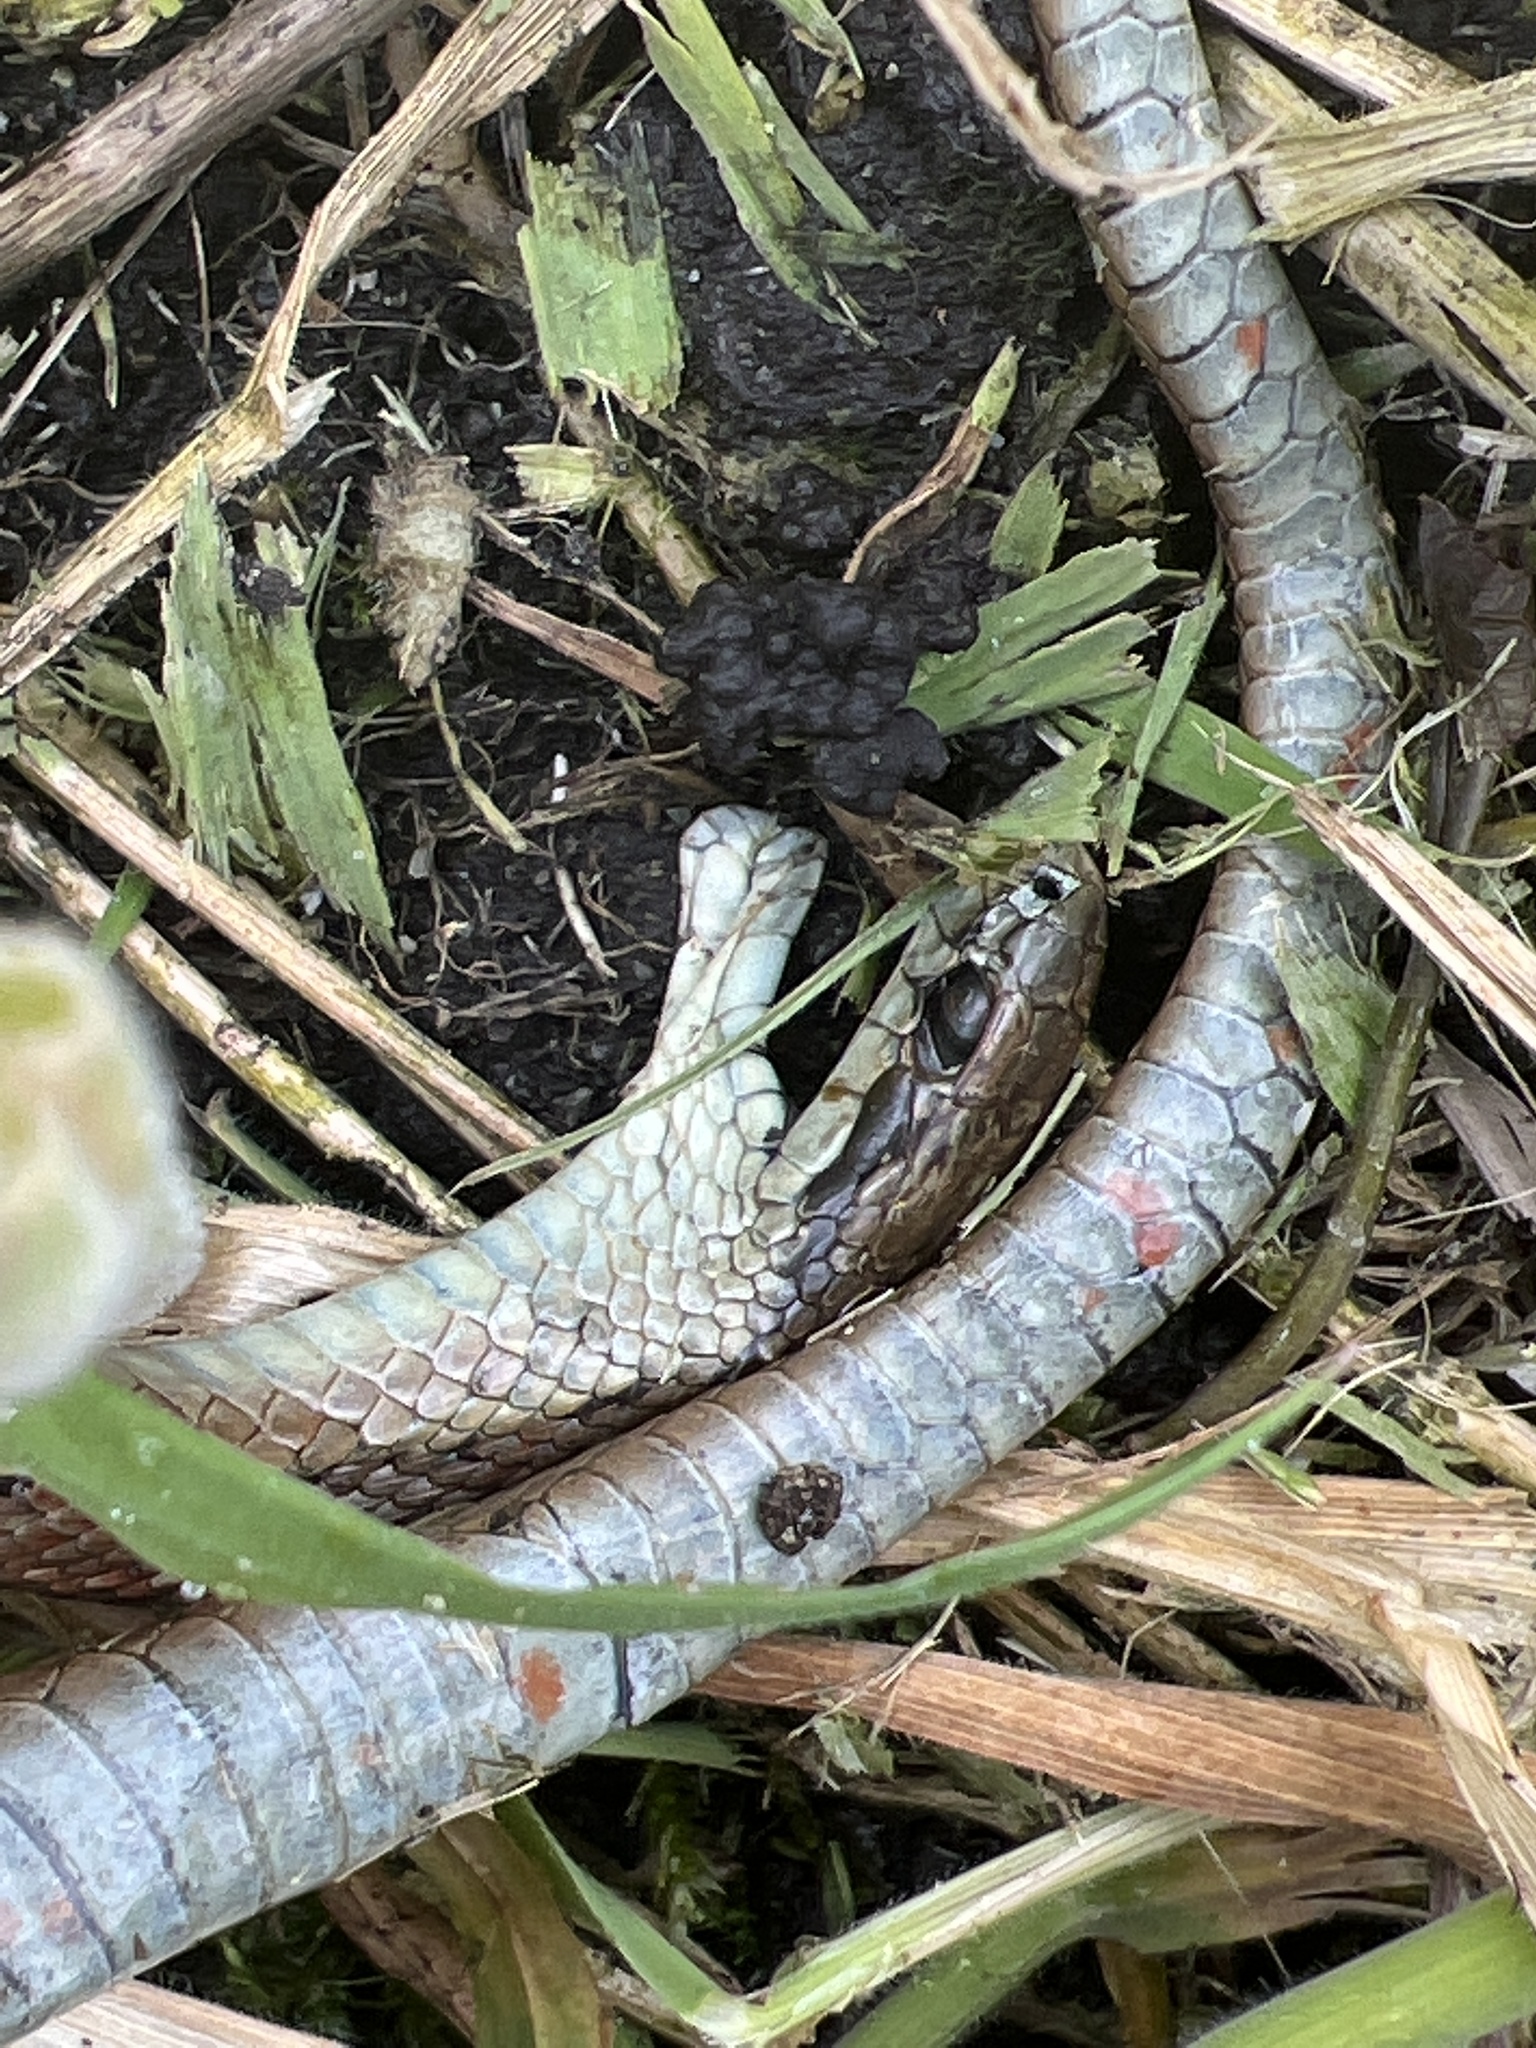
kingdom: Animalia
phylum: Chordata
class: Squamata
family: Colubridae
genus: Thamnophis
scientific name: Thamnophis ordinoides
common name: Northwestern garter snake
